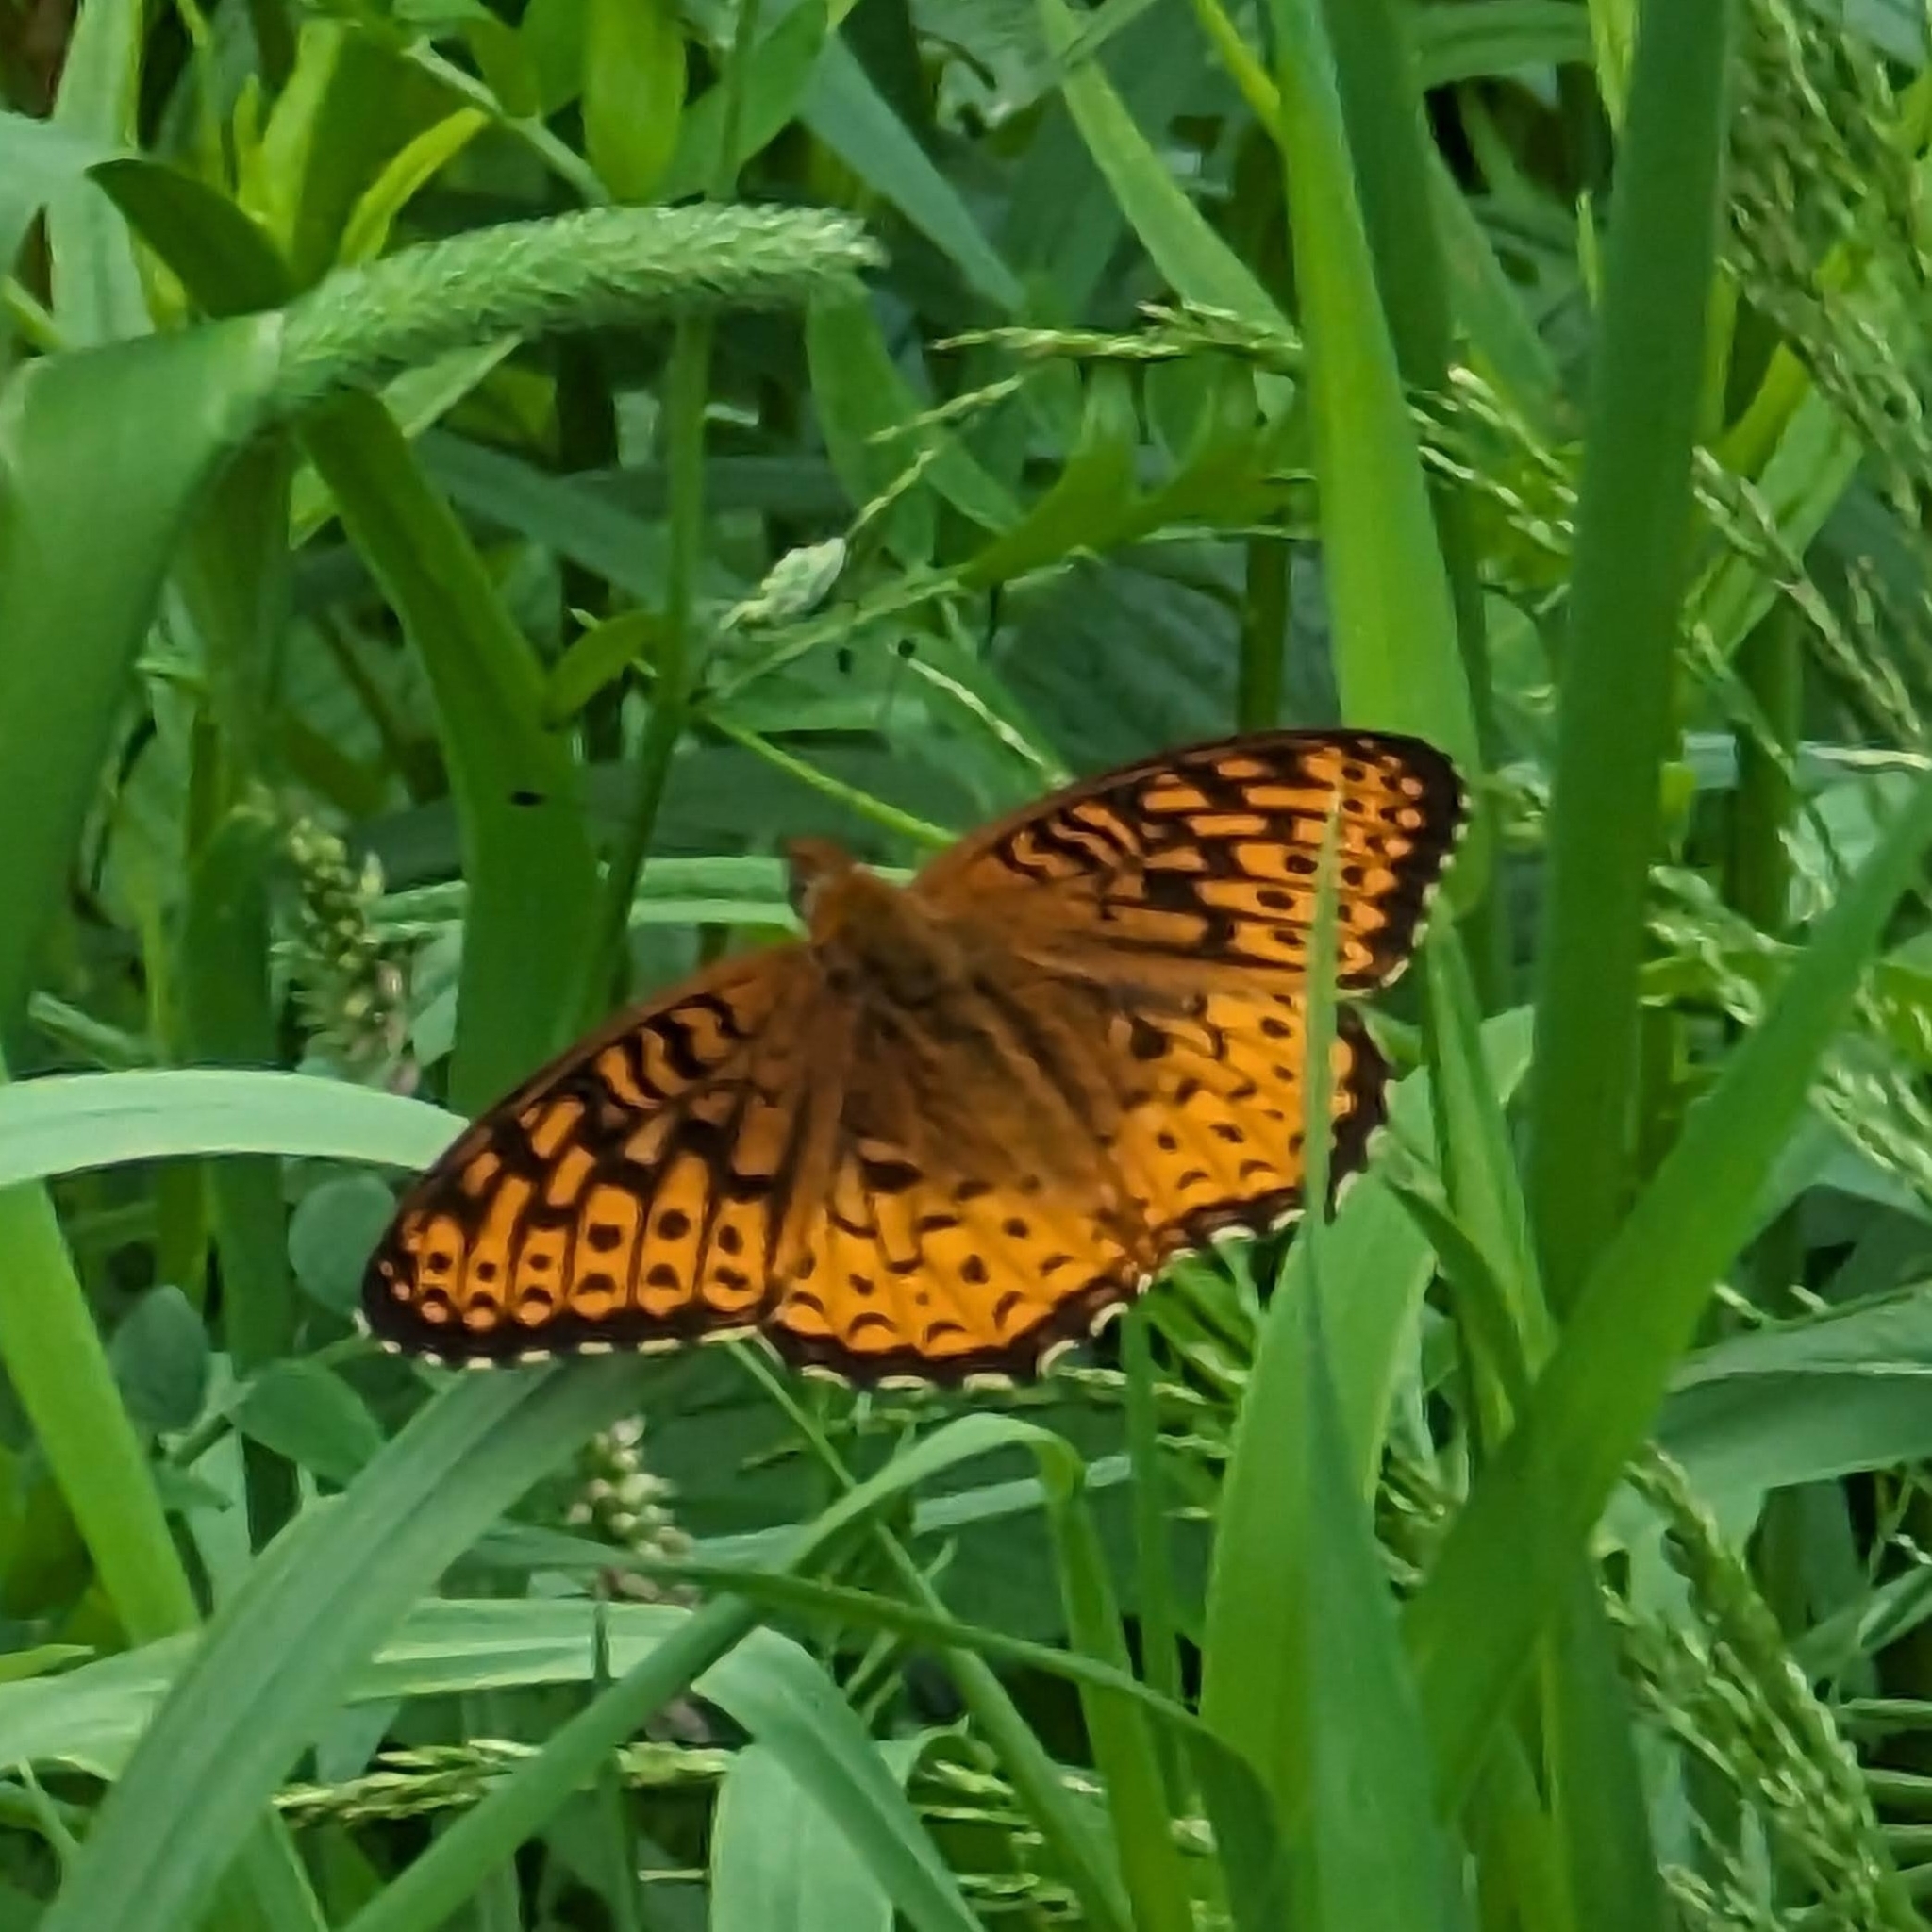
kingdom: Animalia
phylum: Arthropoda
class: Insecta
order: Lepidoptera
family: Nymphalidae
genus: Speyeria
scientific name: Speyeria atlantis
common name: Atlantis fritillary
